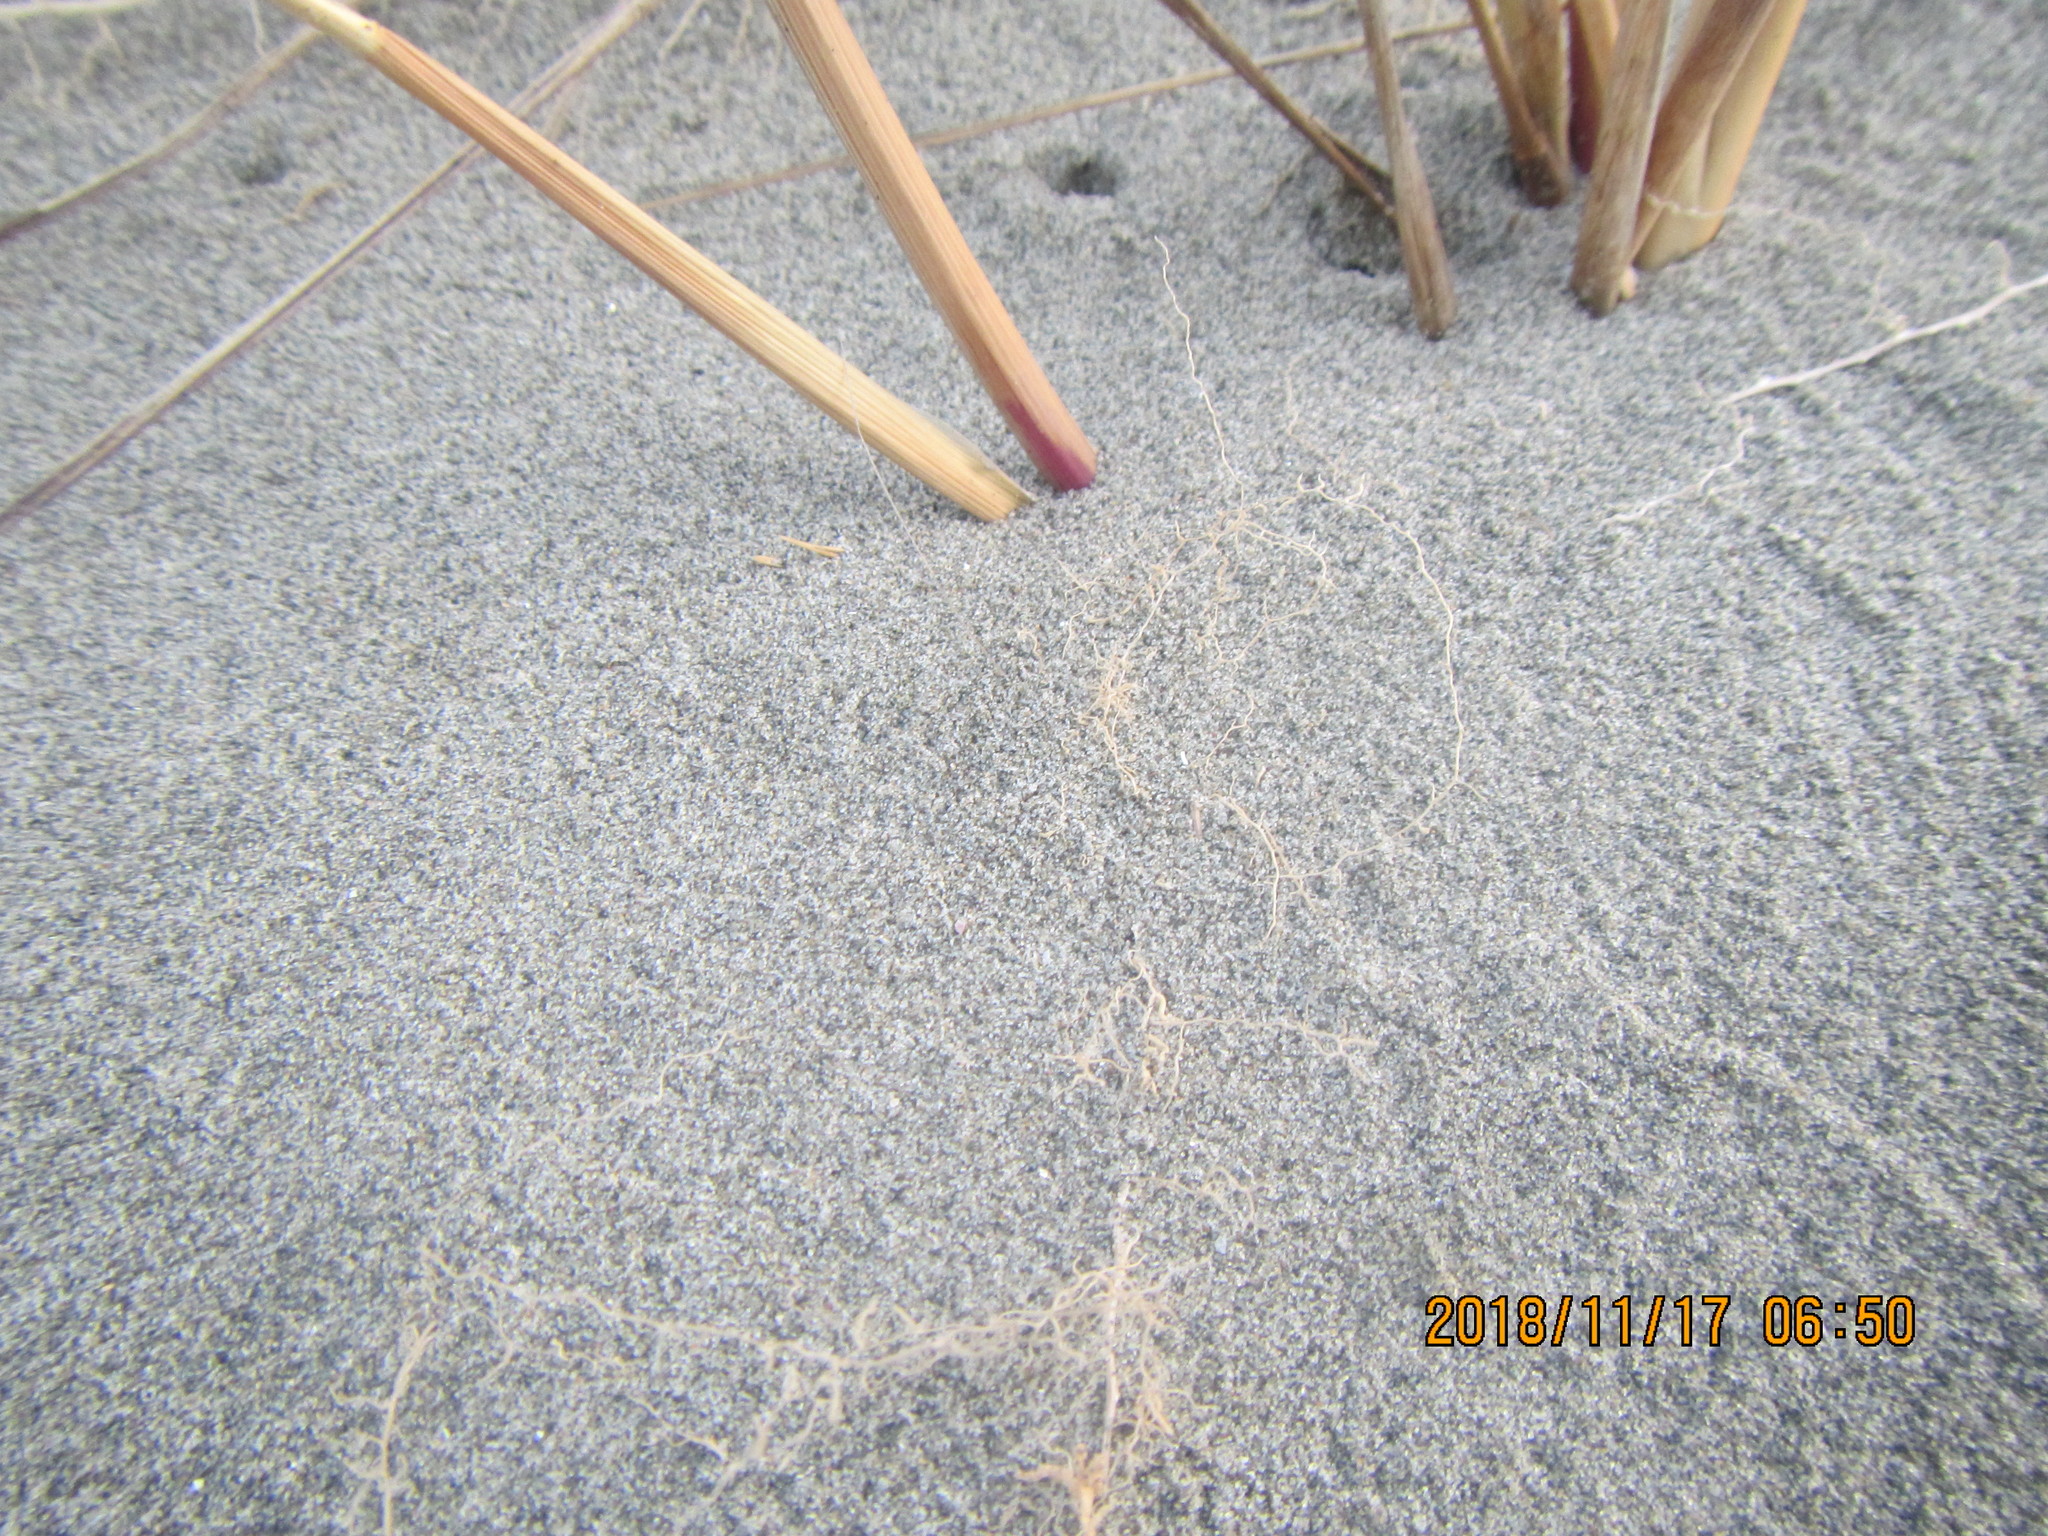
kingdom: Animalia
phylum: Arthropoda
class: Arachnida
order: Araneae
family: Lycosidae
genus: Anoteropsis
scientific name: Anoteropsis litoralis
